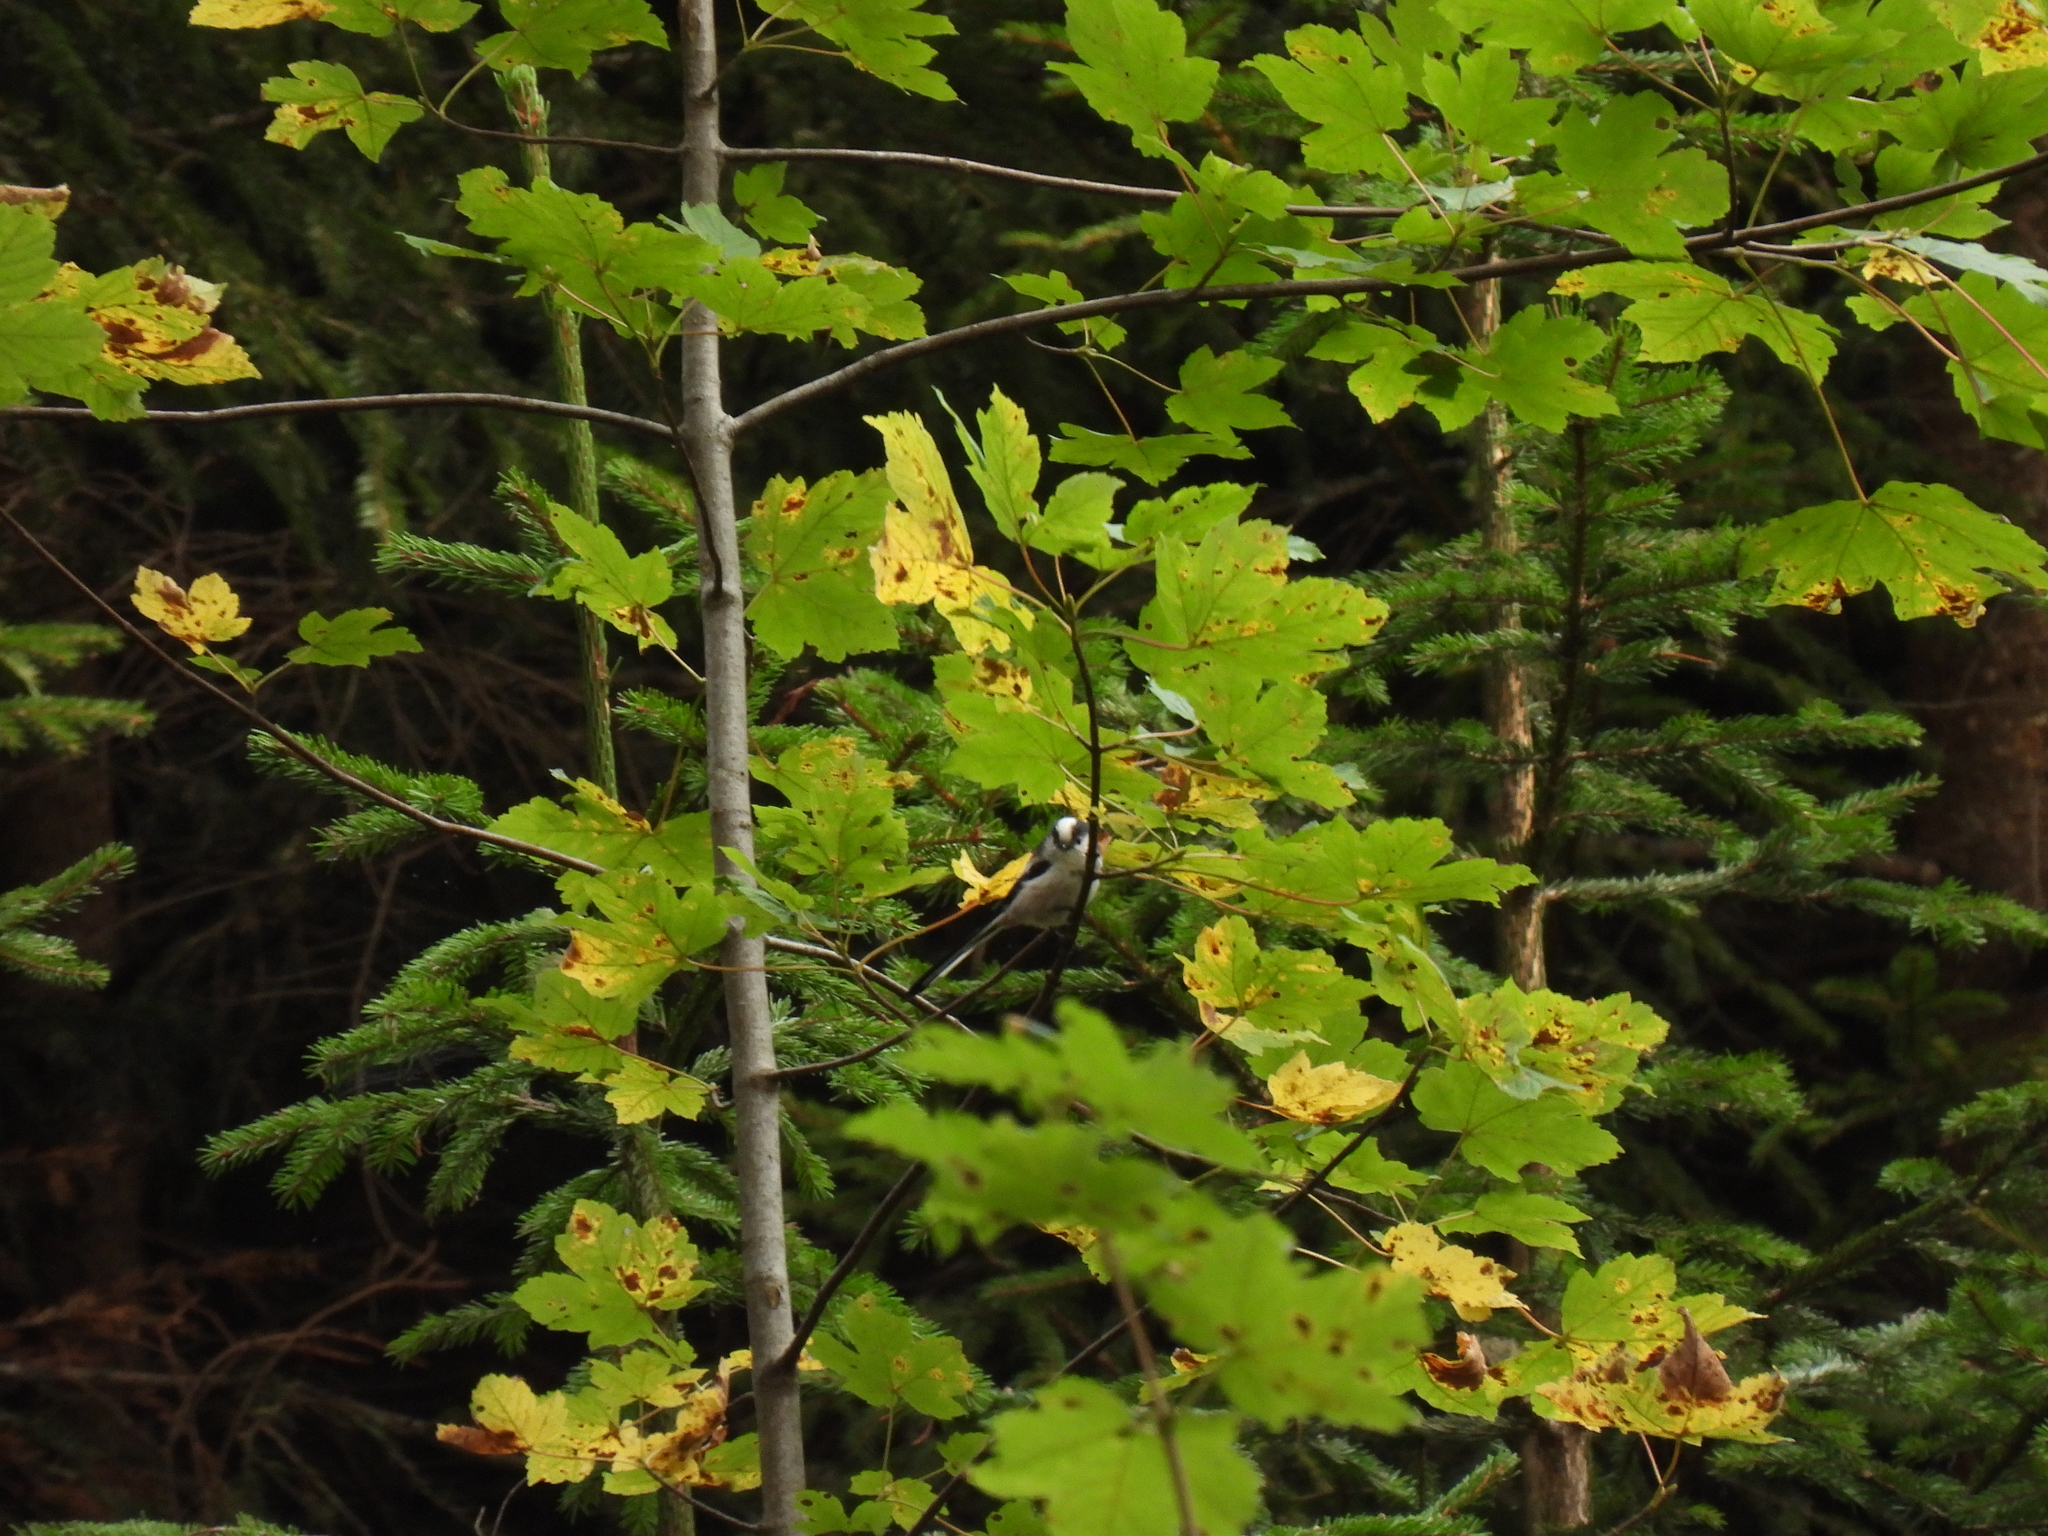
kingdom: Animalia
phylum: Chordata
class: Aves
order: Passeriformes
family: Aegithalidae
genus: Aegithalos
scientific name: Aegithalos caudatus
